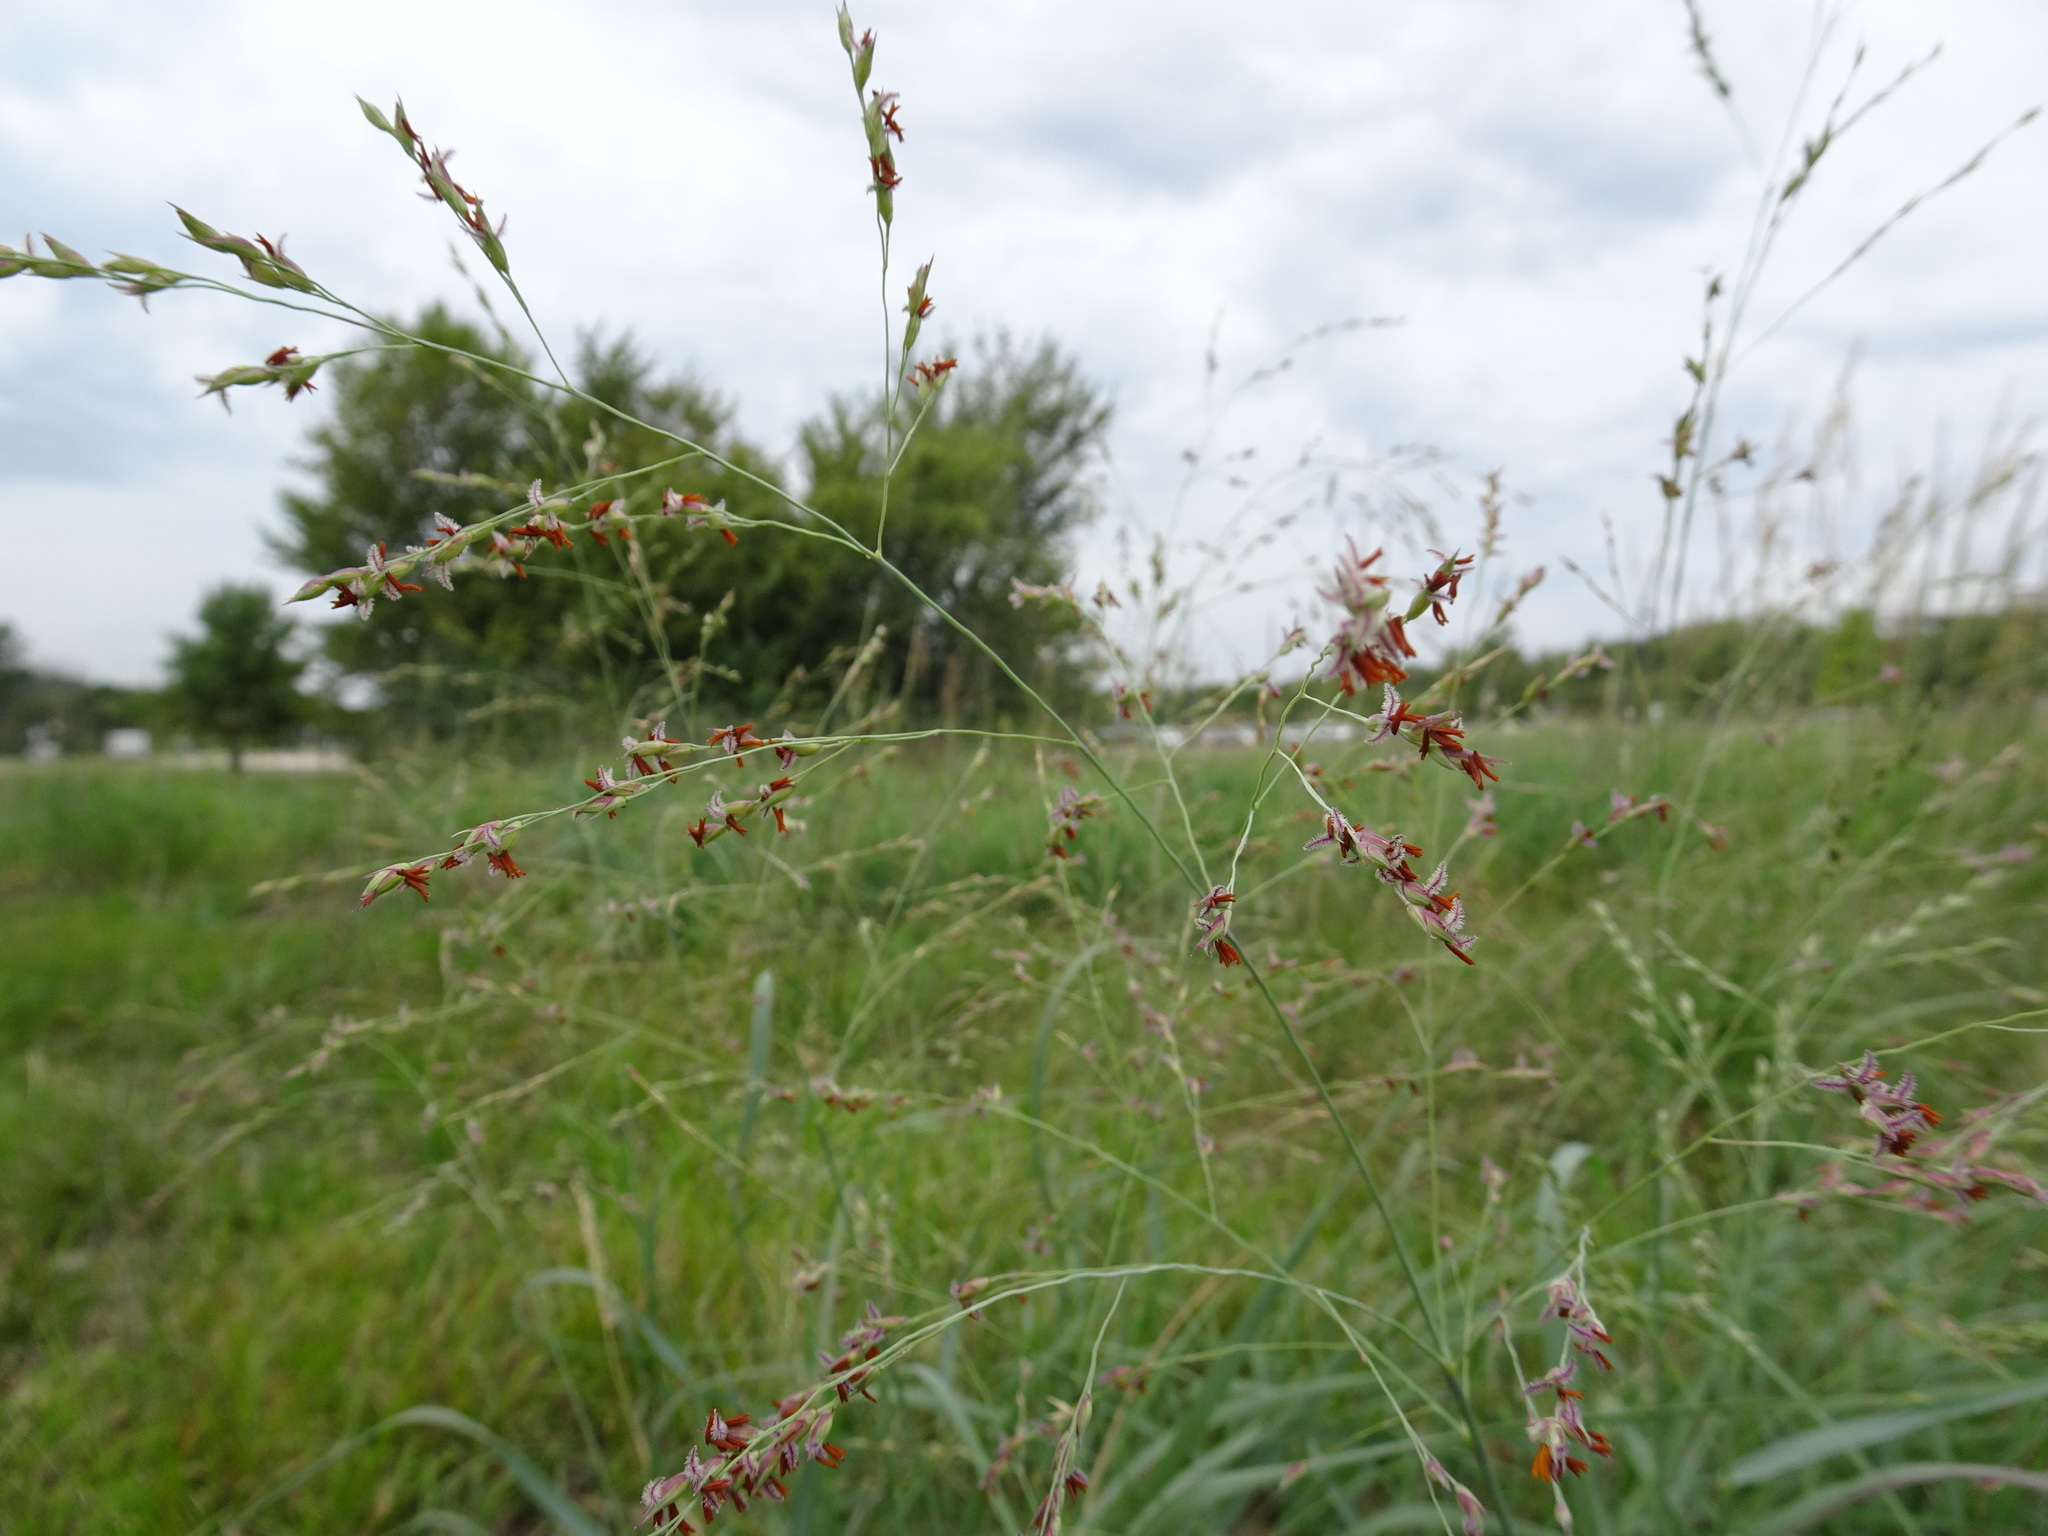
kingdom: Plantae
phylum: Tracheophyta
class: Liliopsida
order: Poales
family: Poaceae
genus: Panicum
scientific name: Panicum virgatum
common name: Switchgrass
